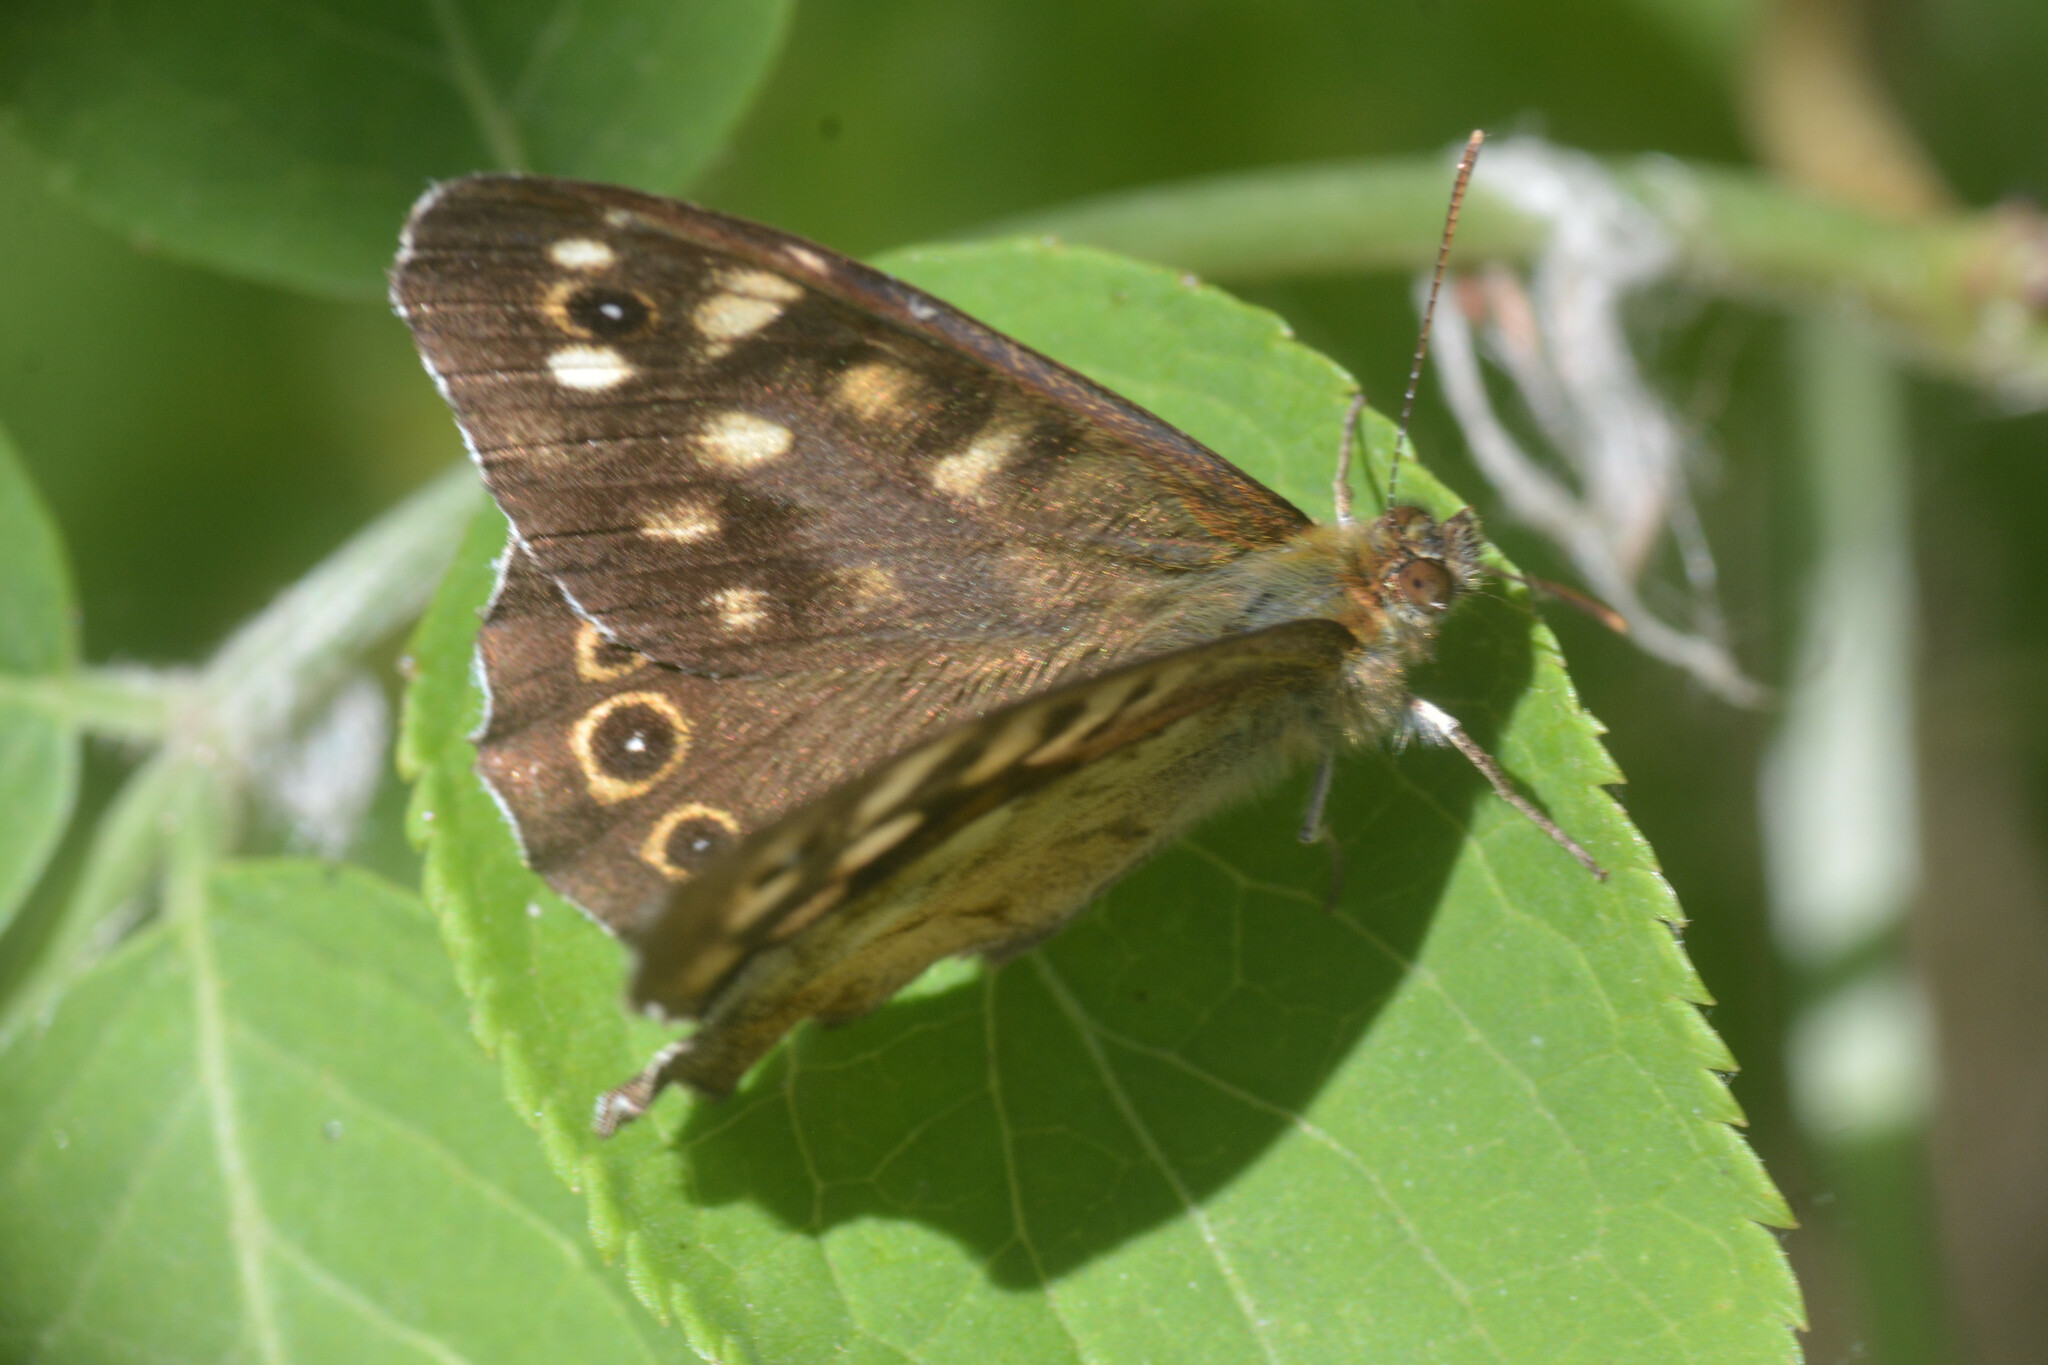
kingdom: Animalia
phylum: Arthropoda
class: Insecta
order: Lepidoptera
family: Nymphalidae
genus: Pararge
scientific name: Pararge aegeria
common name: Speckled wood
